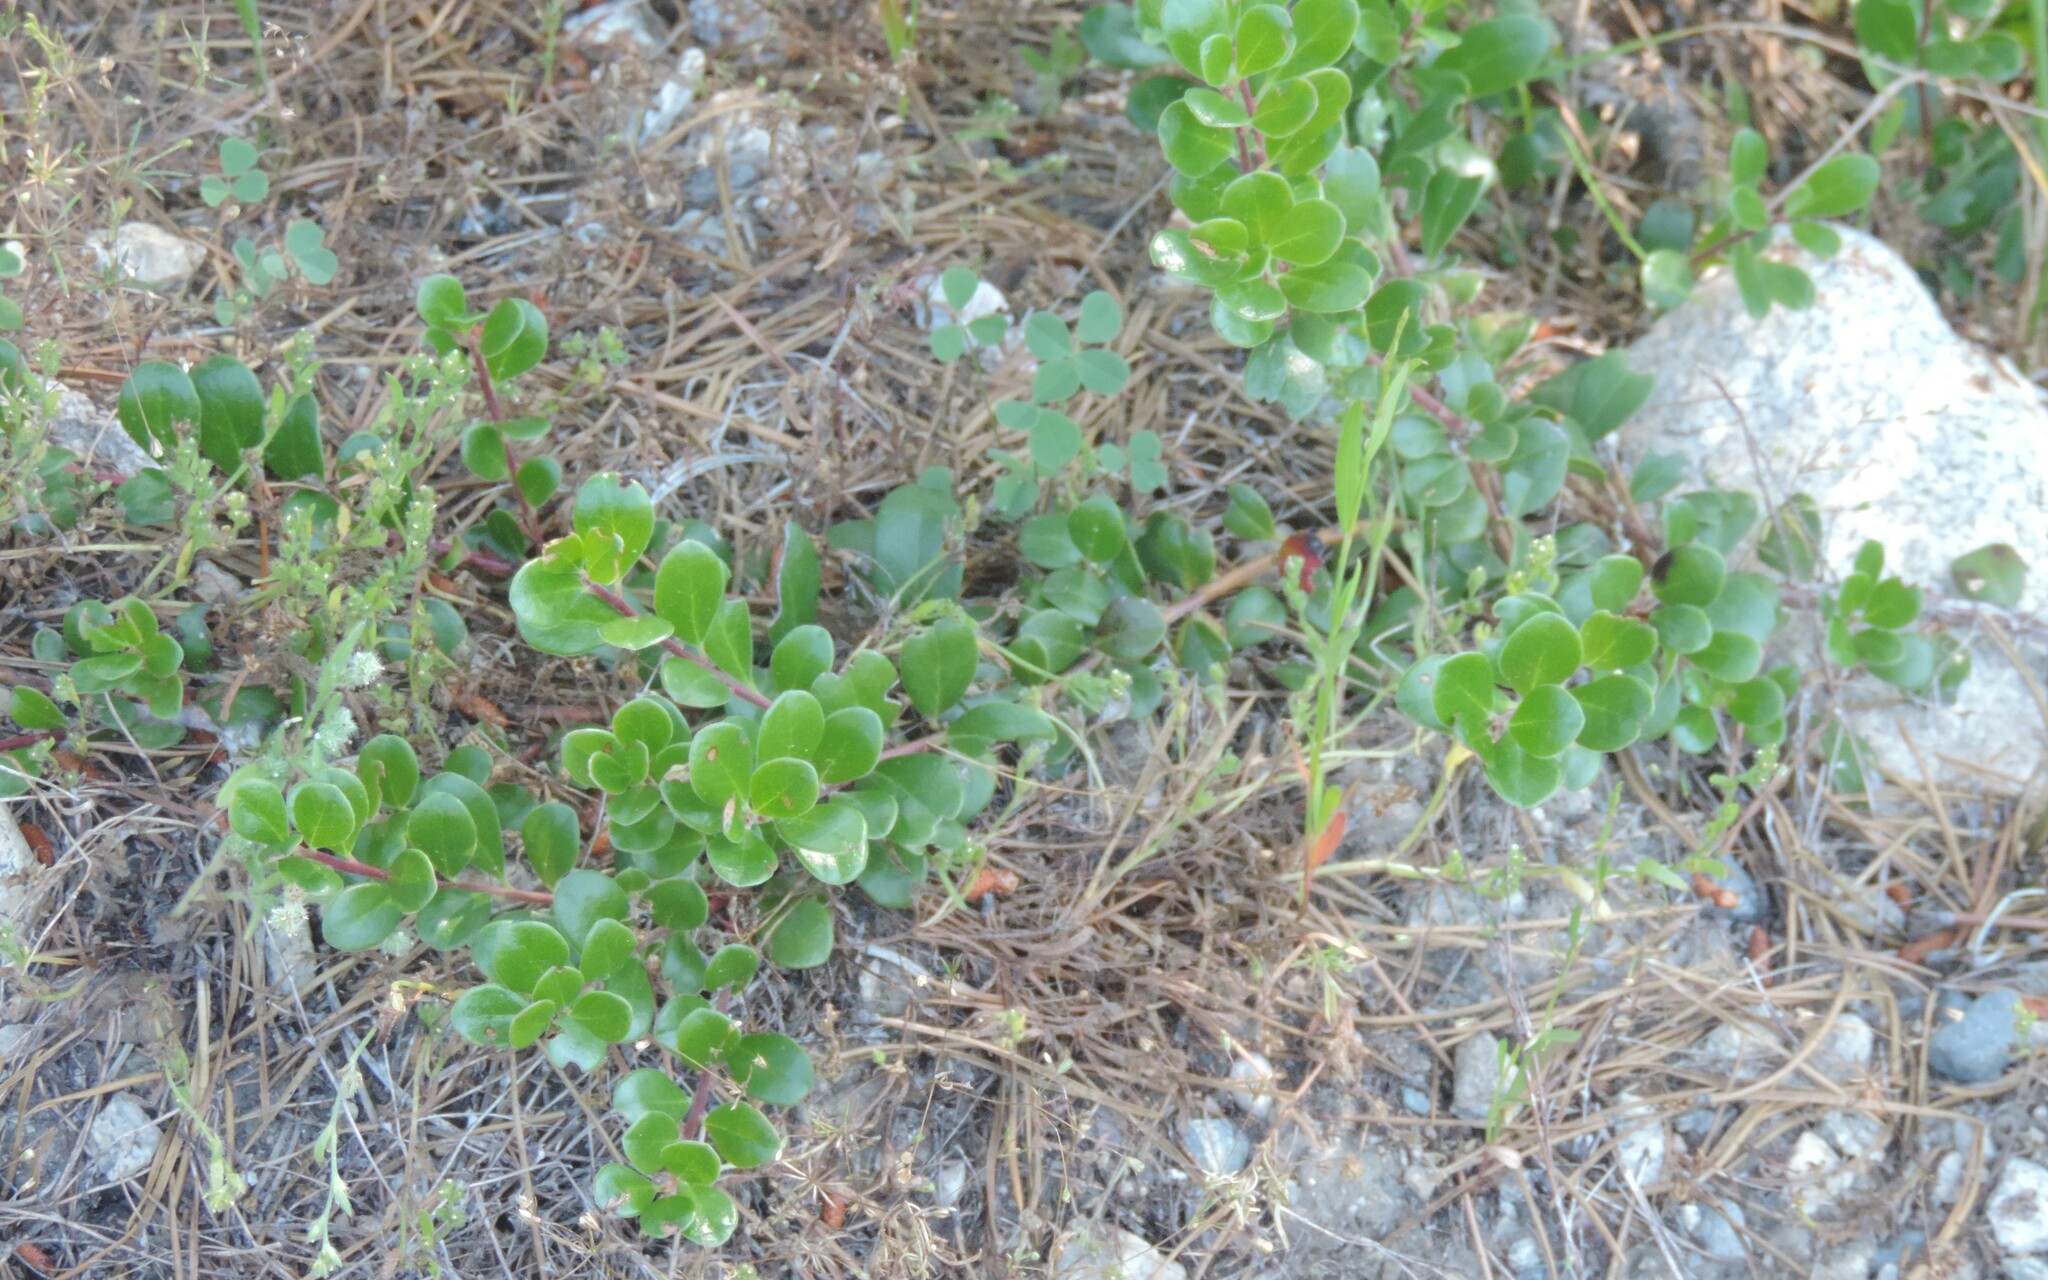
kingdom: Plantae
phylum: Tracheophyta
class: Magnoliopsida
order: Ericales
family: Ericaceae
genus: Arctostaphylos
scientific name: Arctostaphylos uva-ursi
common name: Bearberry
